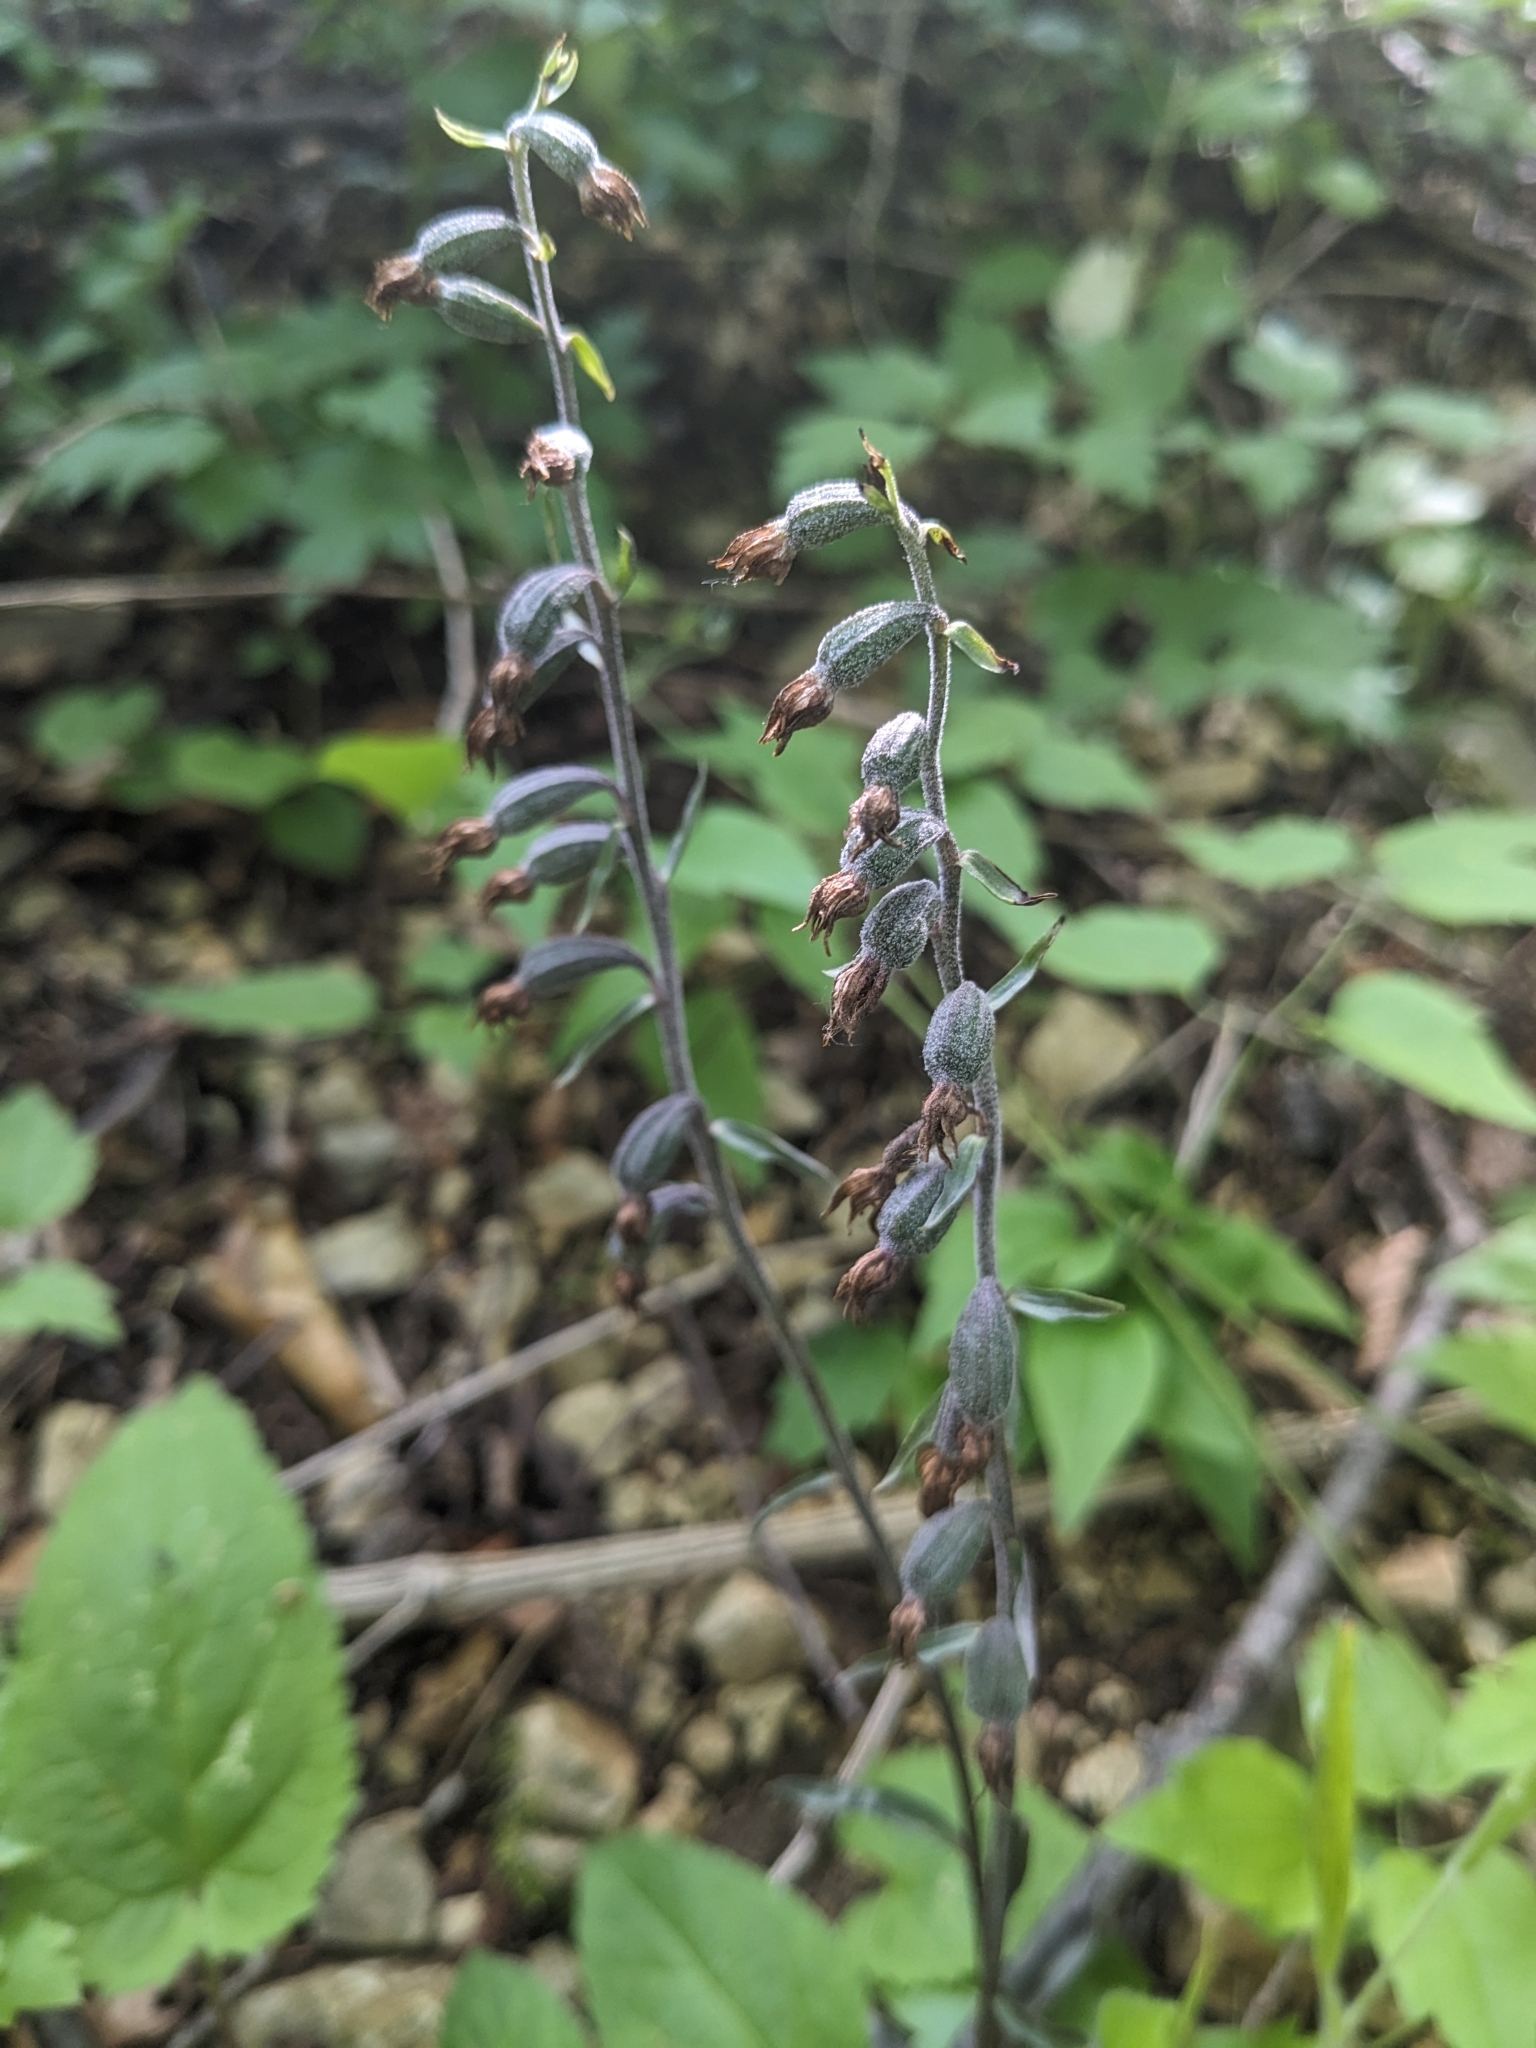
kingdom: Plantae
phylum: Tracheophyta
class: Liliopsida
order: Asparagales
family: Orchidaceae
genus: Epipactis
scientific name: Epipactis microphylla
